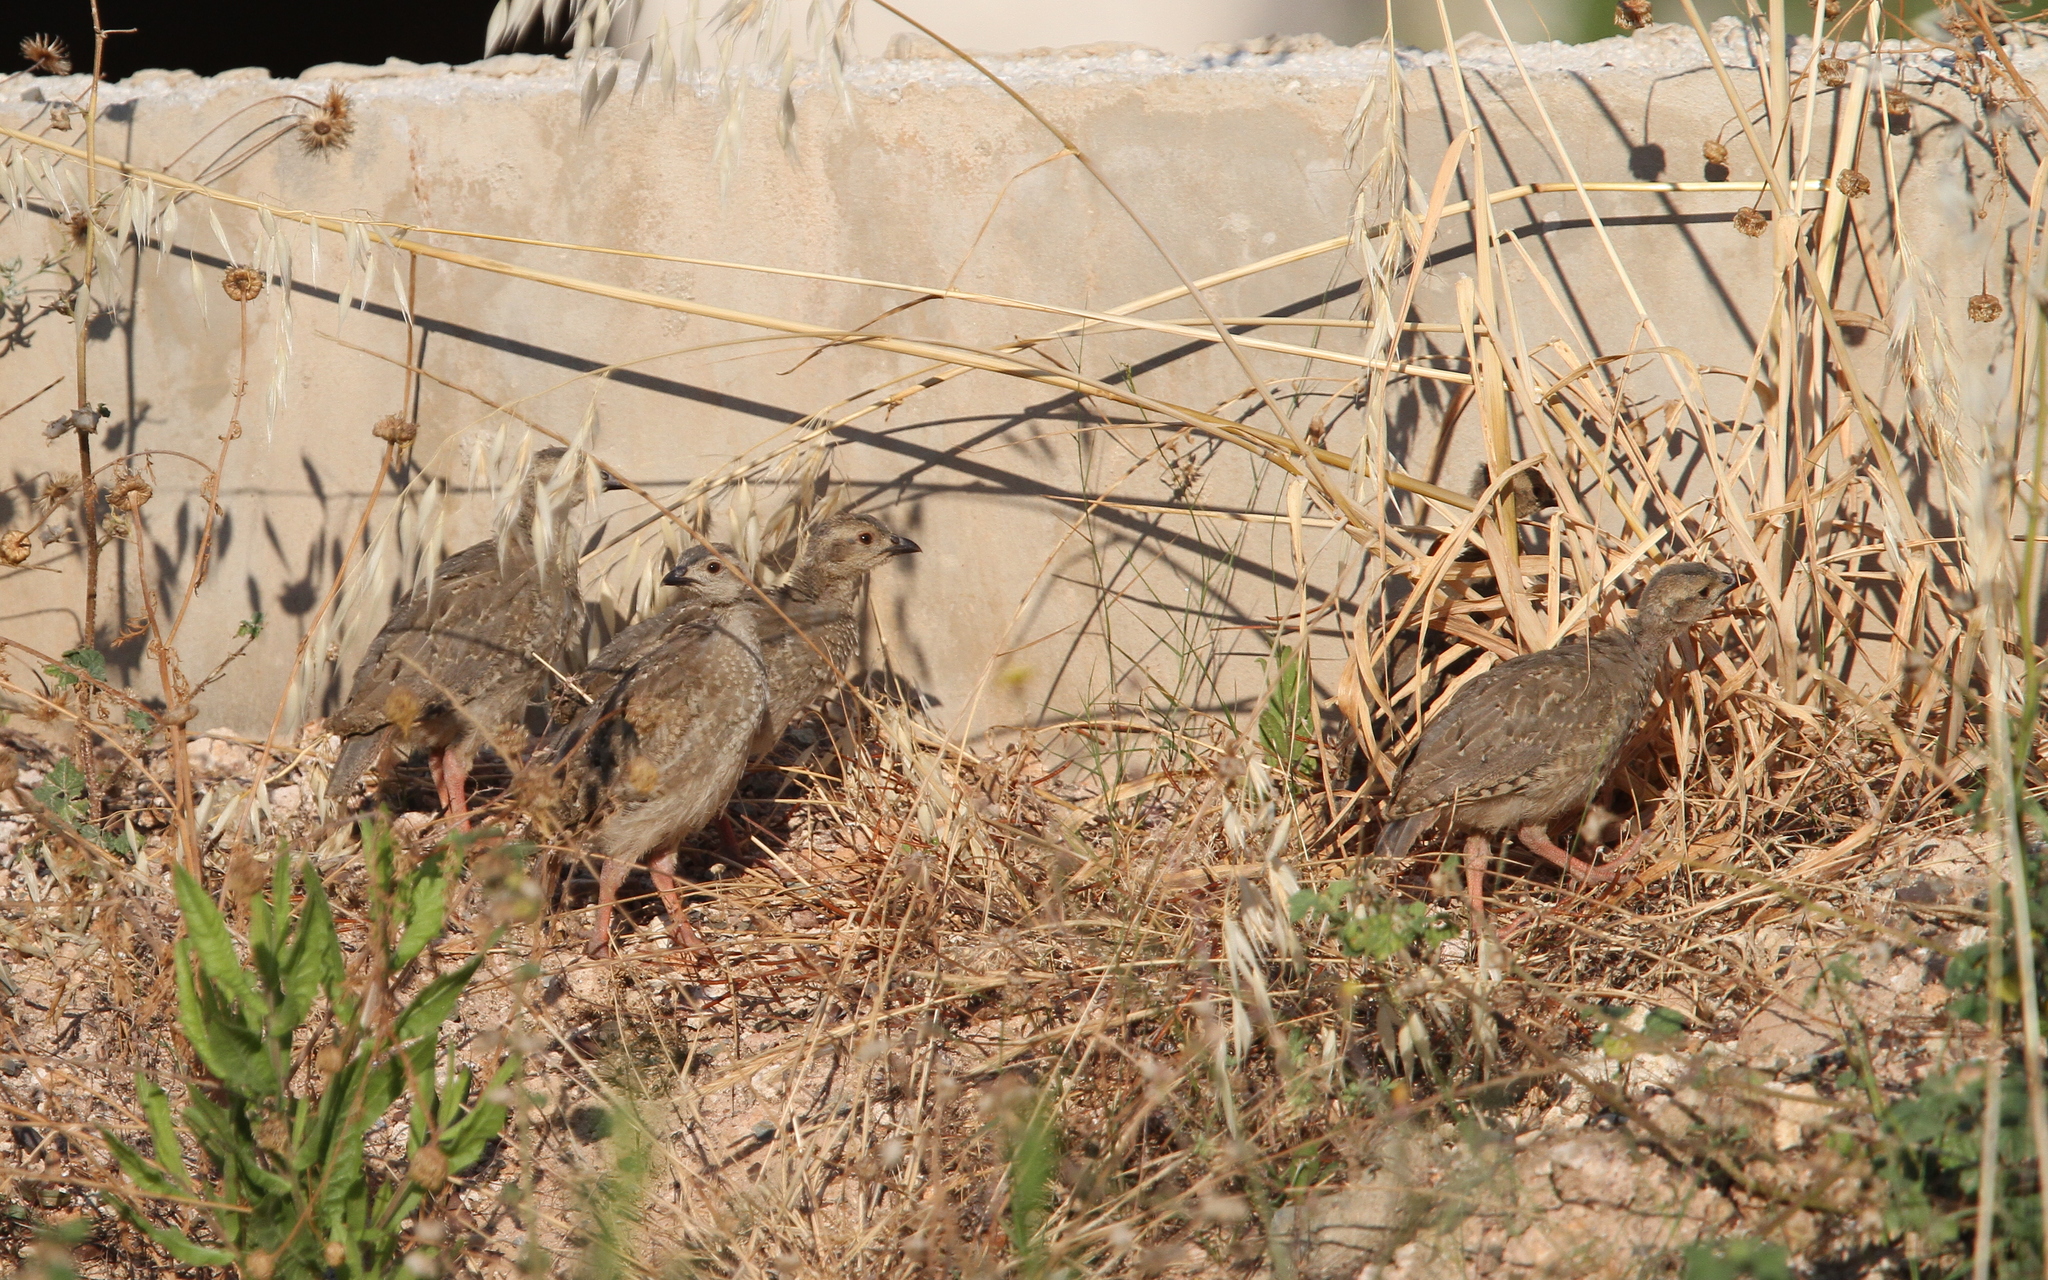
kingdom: Animalia
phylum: Chordata
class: Aves
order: Galliformes
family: Phasianidae
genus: Alectoris
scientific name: Alectoris chukar
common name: Chukar
